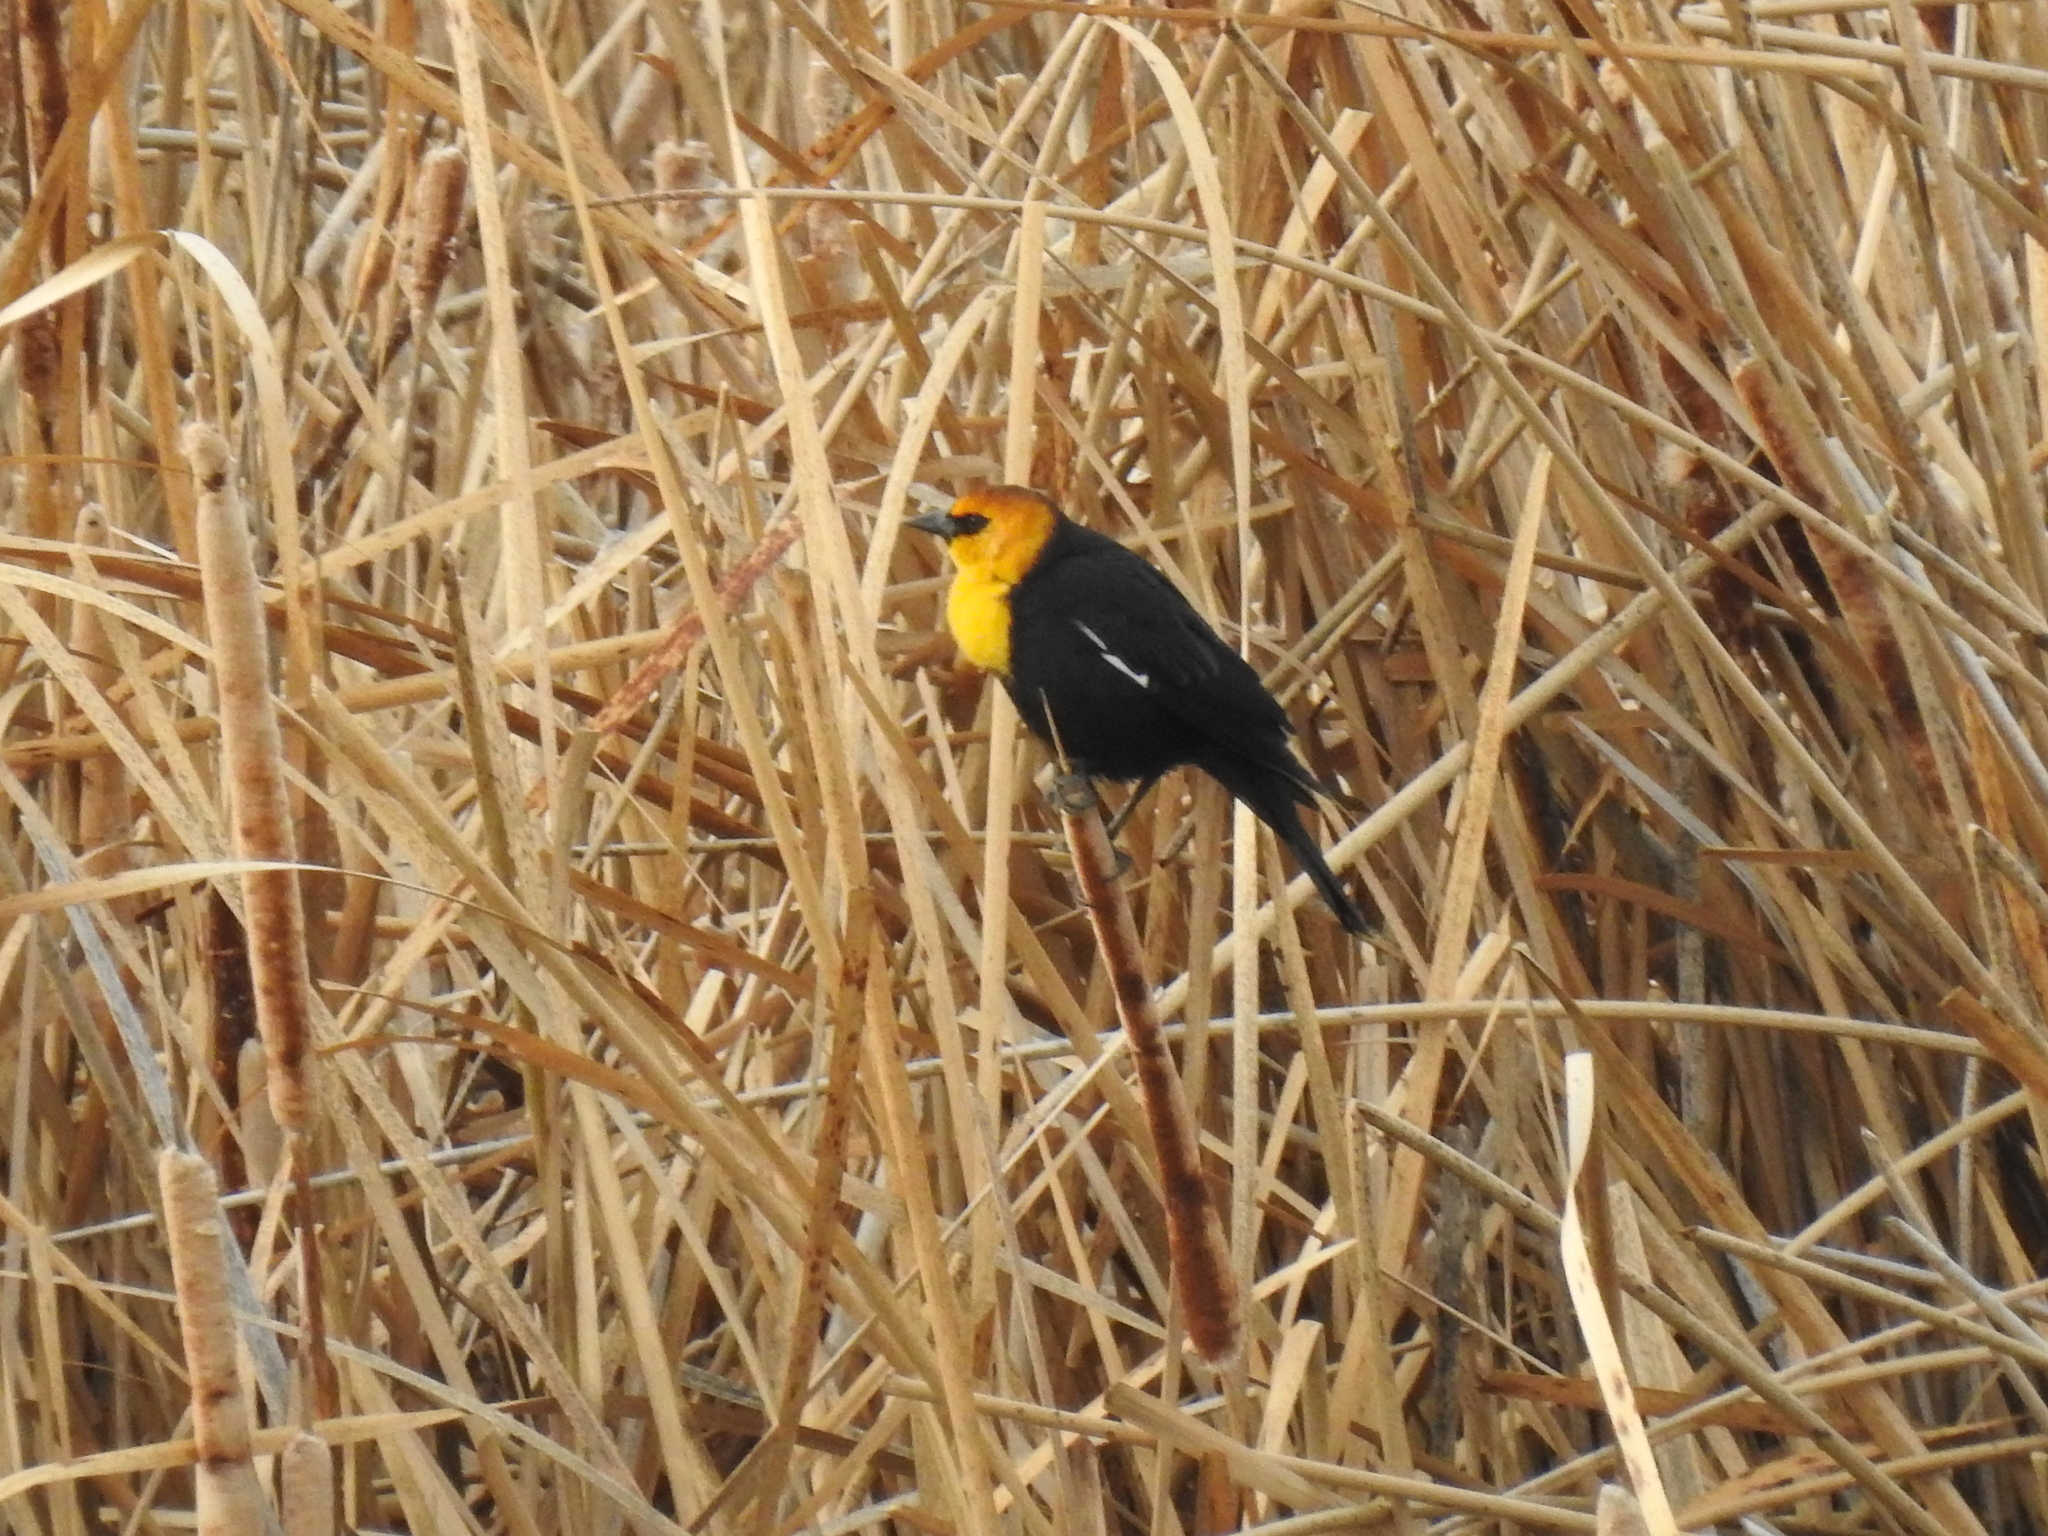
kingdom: Animalia
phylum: Chordata
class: Aves
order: Passeriformes
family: Icteridae
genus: Xanthocephalus
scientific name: Xanthocephalus xanthocephalus
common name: Yellow-headed blackbird
